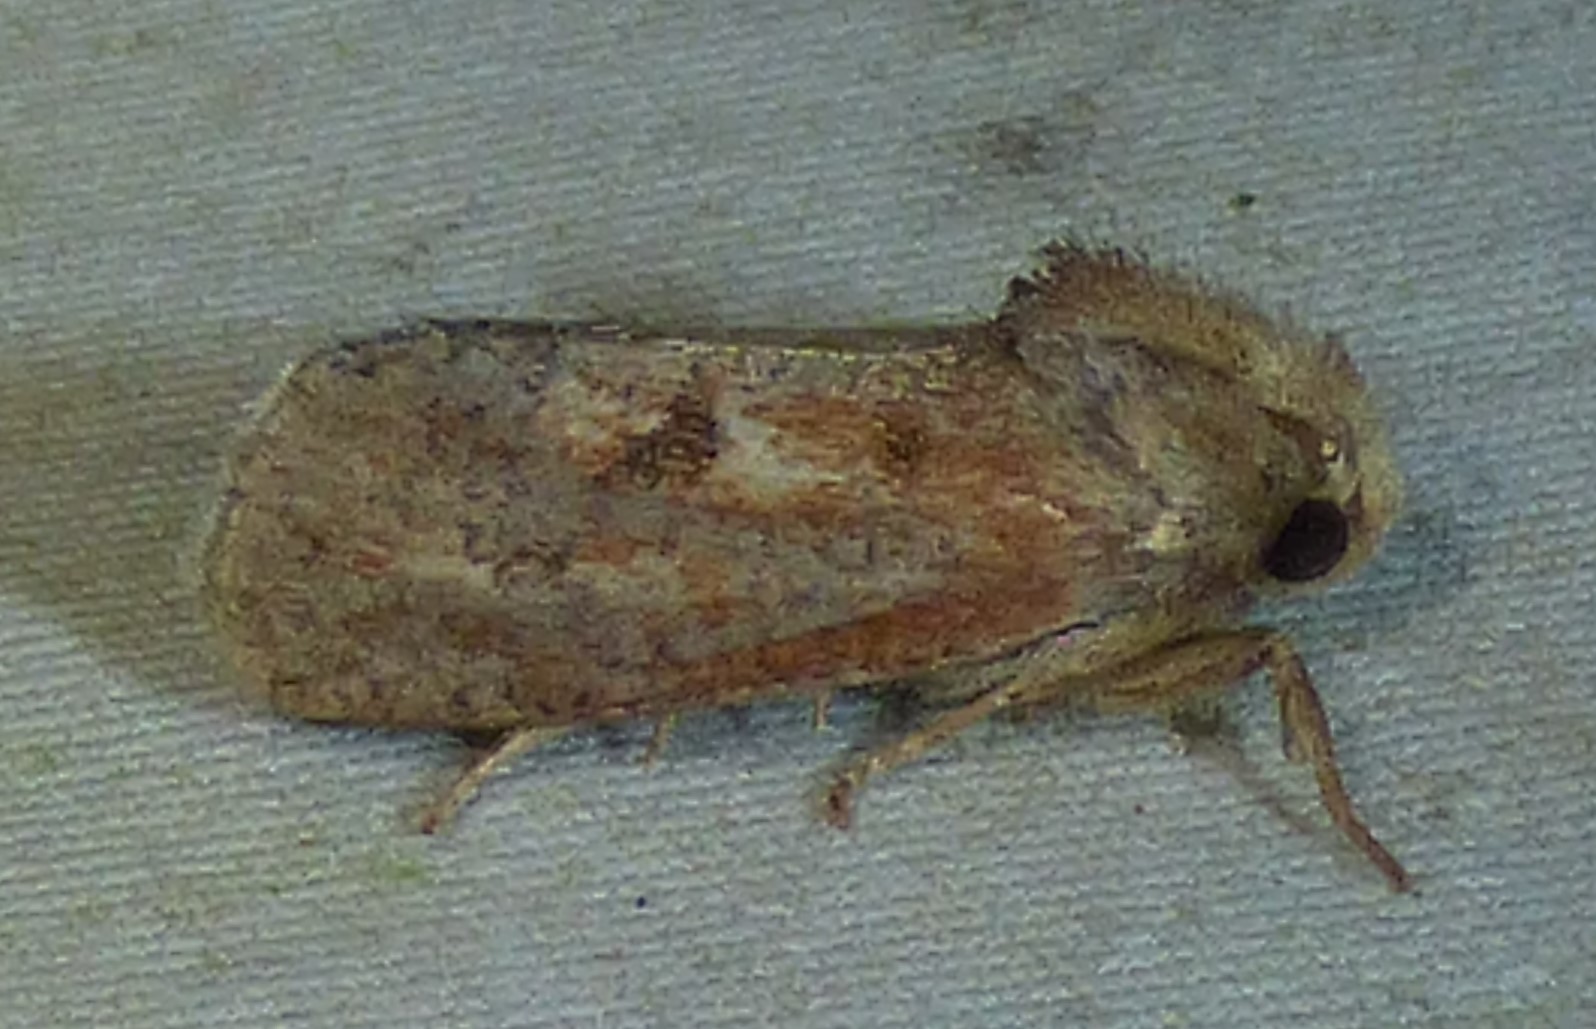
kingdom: Animalia
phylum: Arthropoda
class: Insecta
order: Lepidoptera
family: Tineidae
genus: Acrolophus
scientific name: Acrolophus plumifrontella
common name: Eastern grass tubeworm moth
